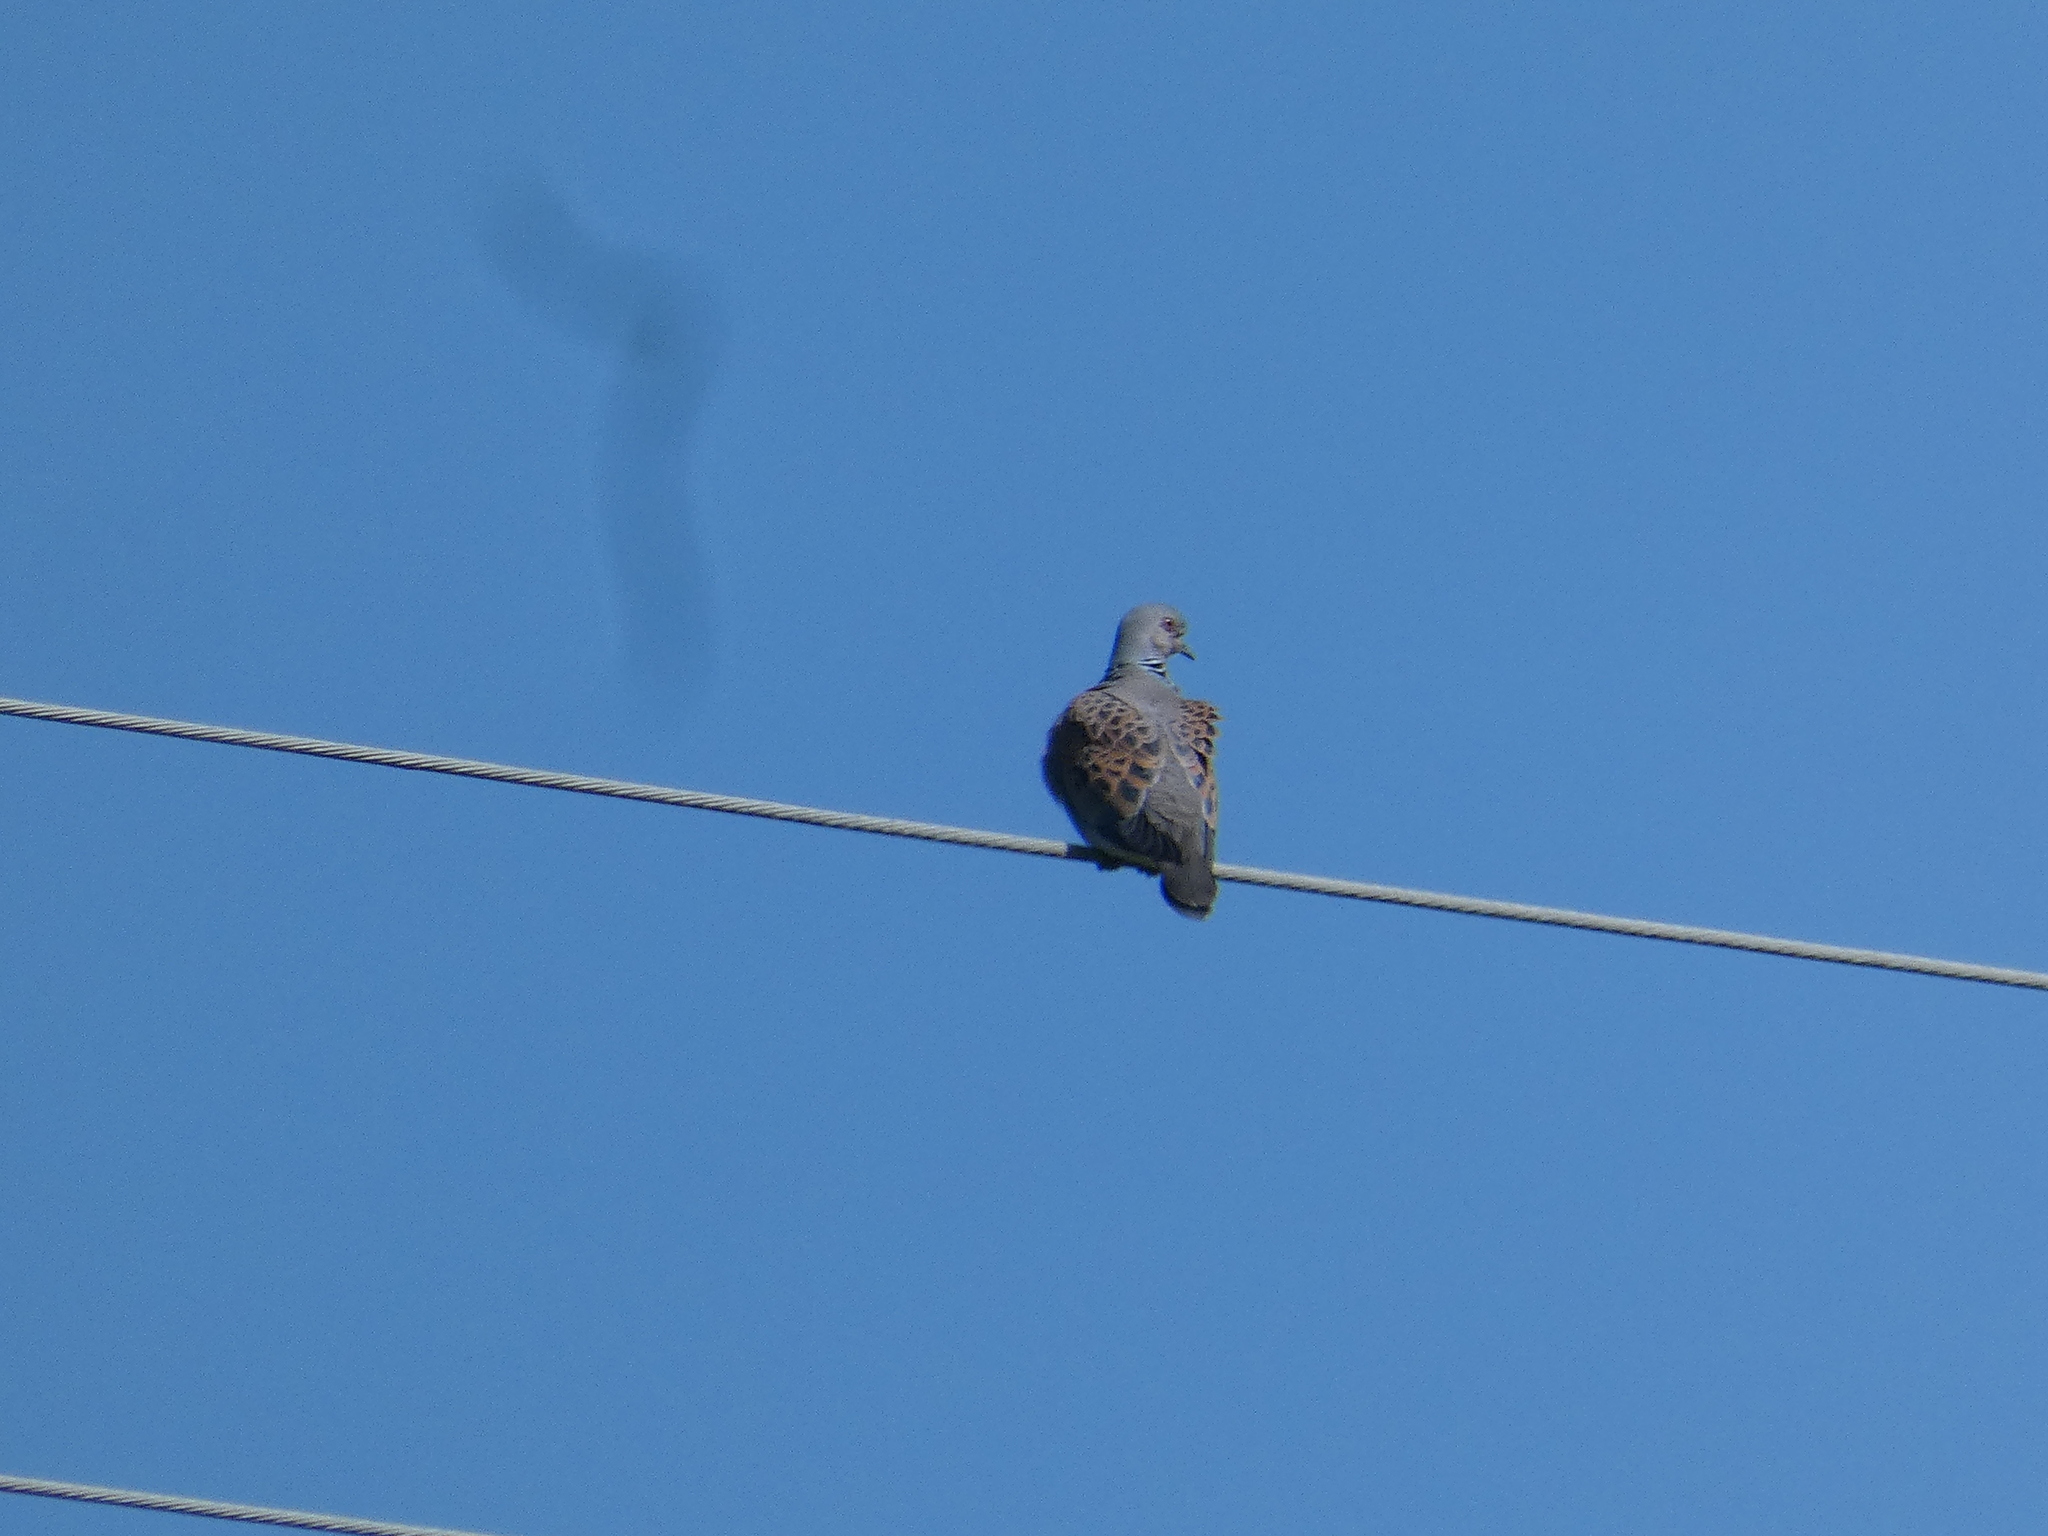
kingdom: Animalia
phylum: Chordata
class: Aves
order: Columbiformes
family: Columbidae
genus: Streptopelia
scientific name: Streptopelia turtur
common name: European turtle dove
